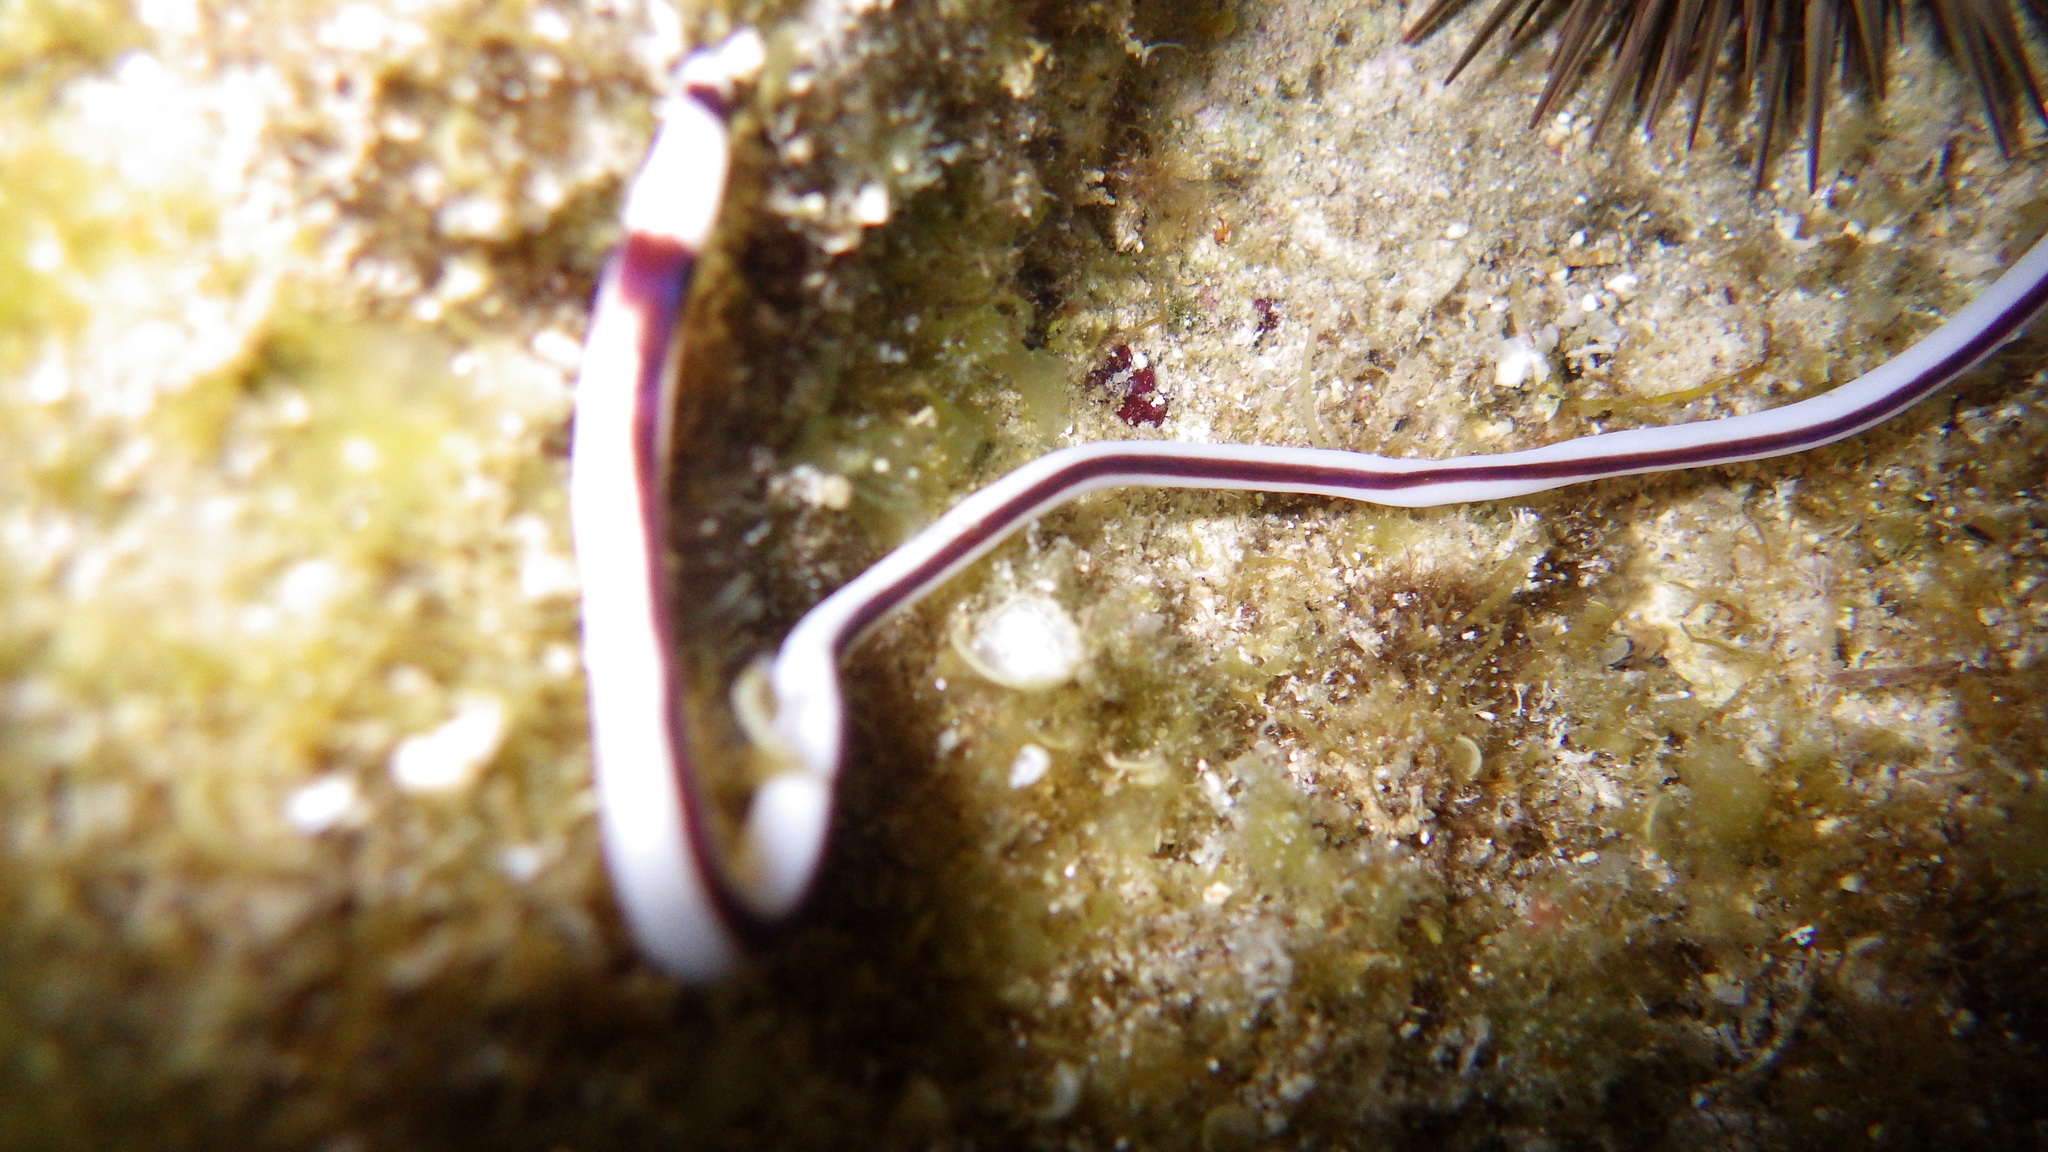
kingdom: Animalia
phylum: Nemertea
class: Pilidiophora
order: Heteronemertea
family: Valenciniidae
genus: Baseodiscus
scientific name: Baseodiscus hemprichii
